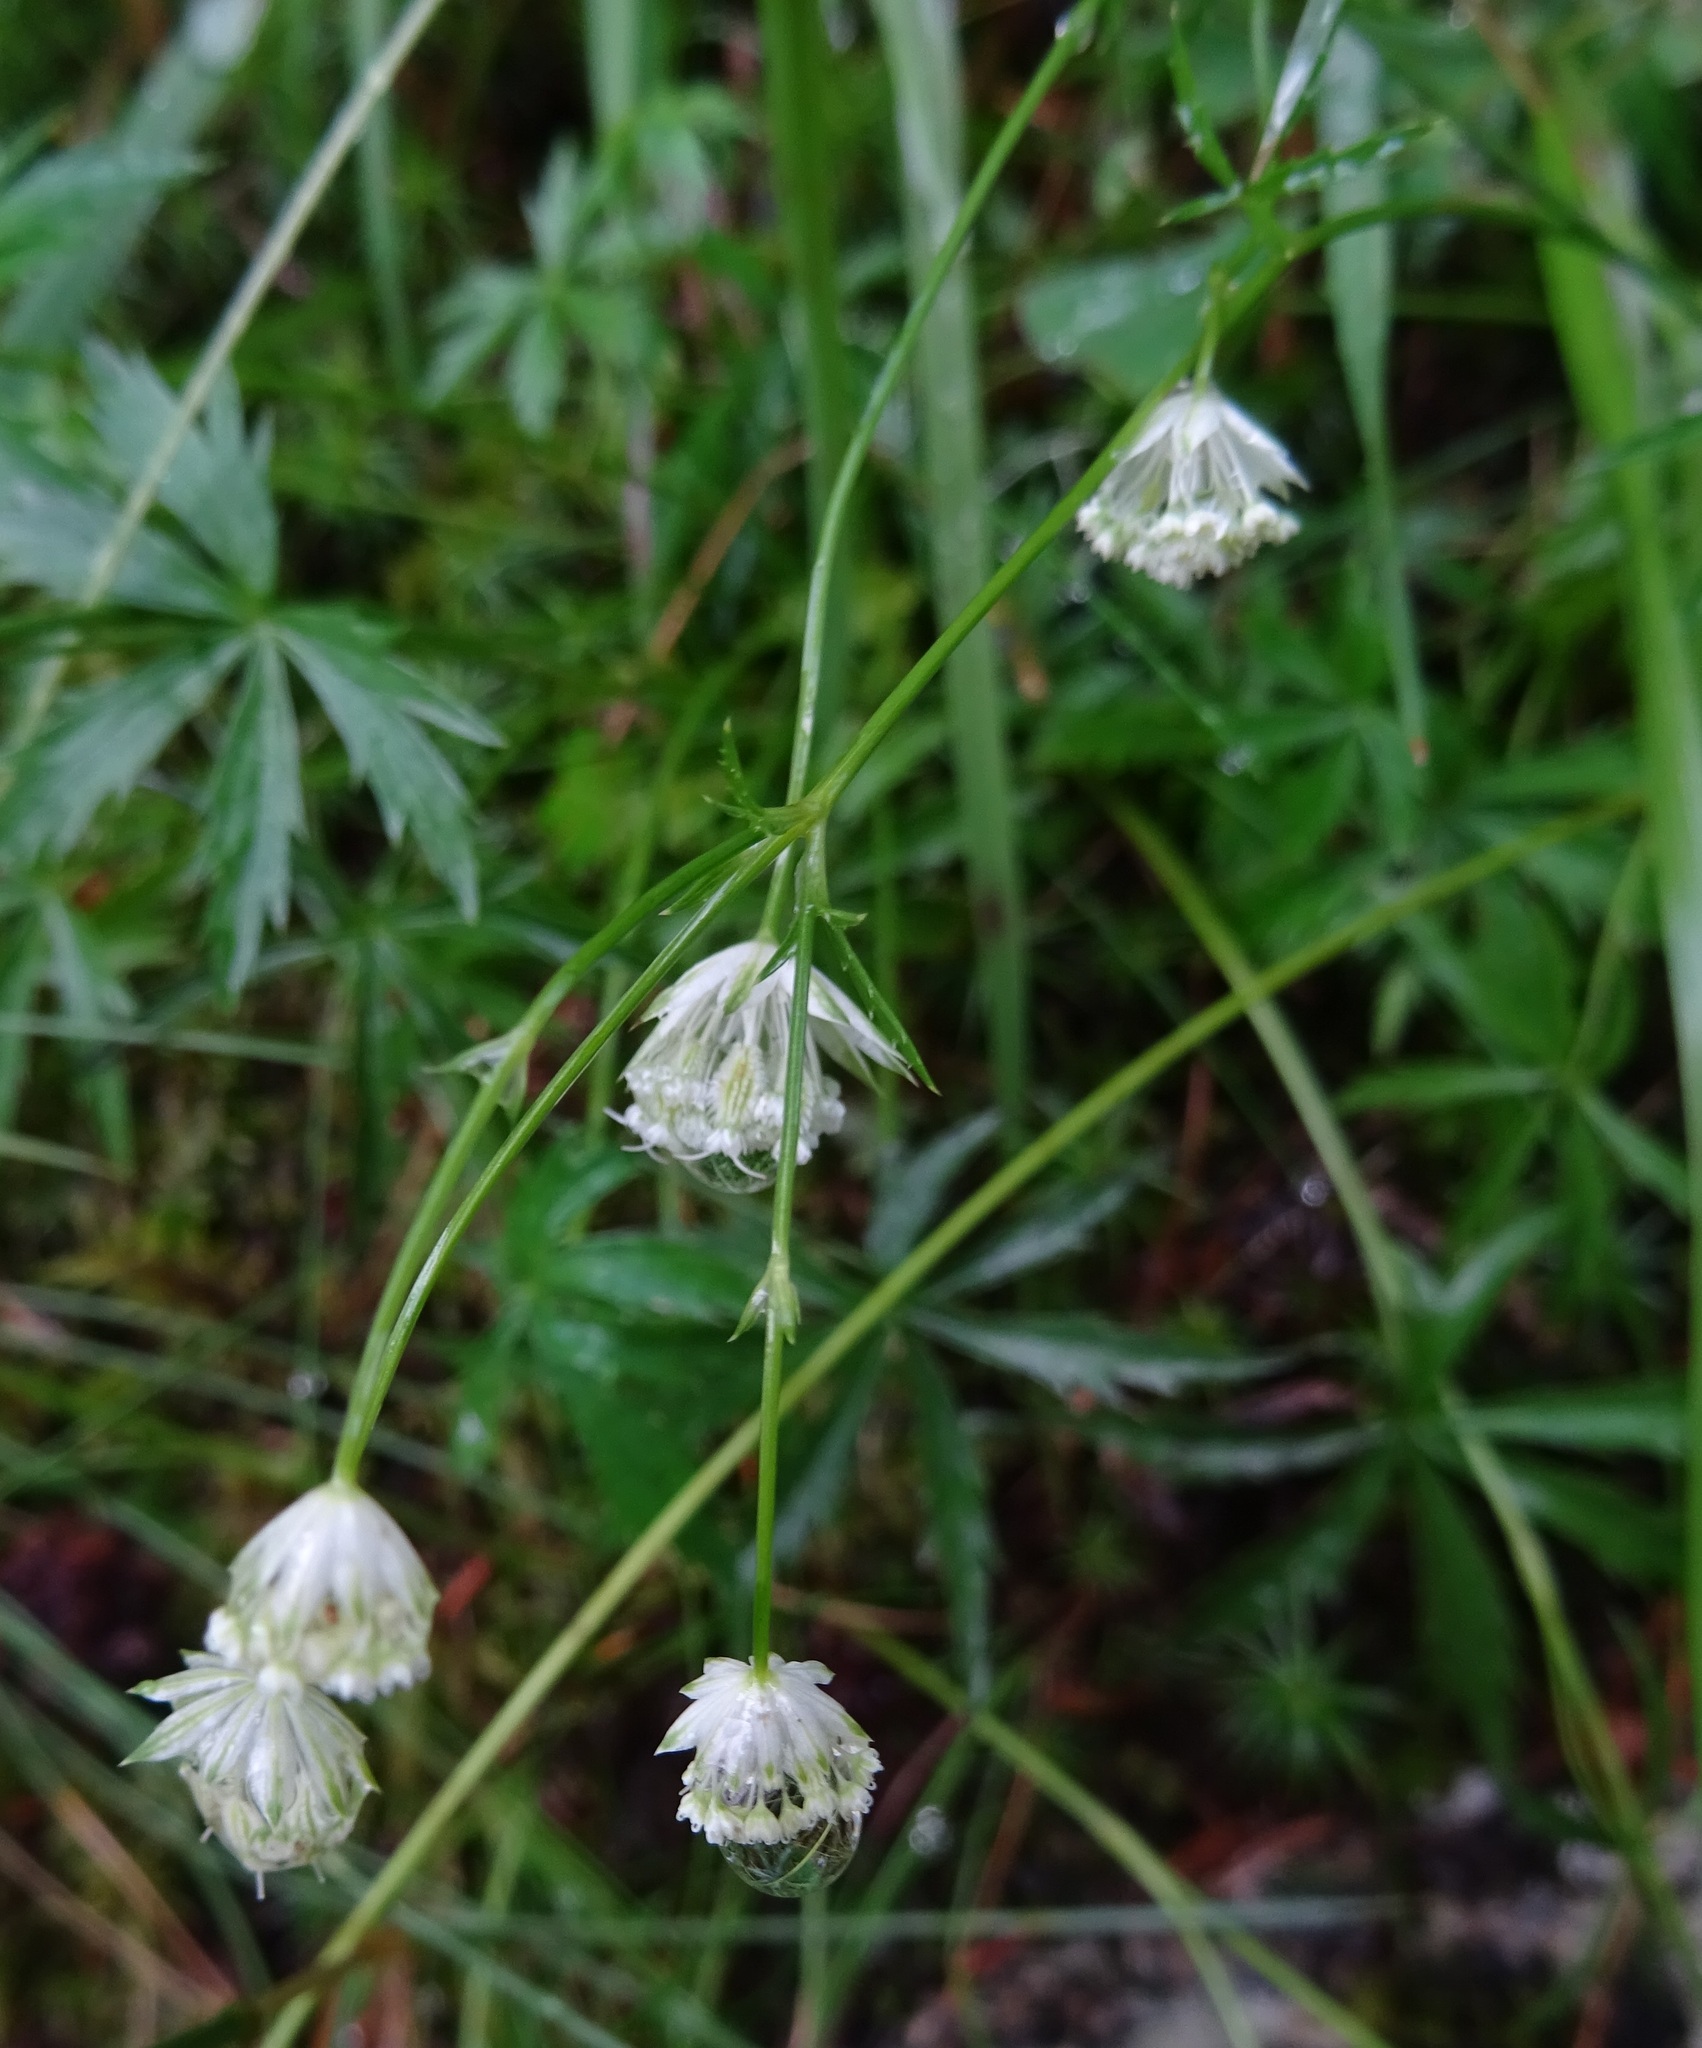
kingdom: Plantae
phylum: Tracheophyta
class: Magnoliopsida
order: Apiales
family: Apiaceae
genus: Astrantia
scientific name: Astrantia minor
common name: Lesser masterwort
